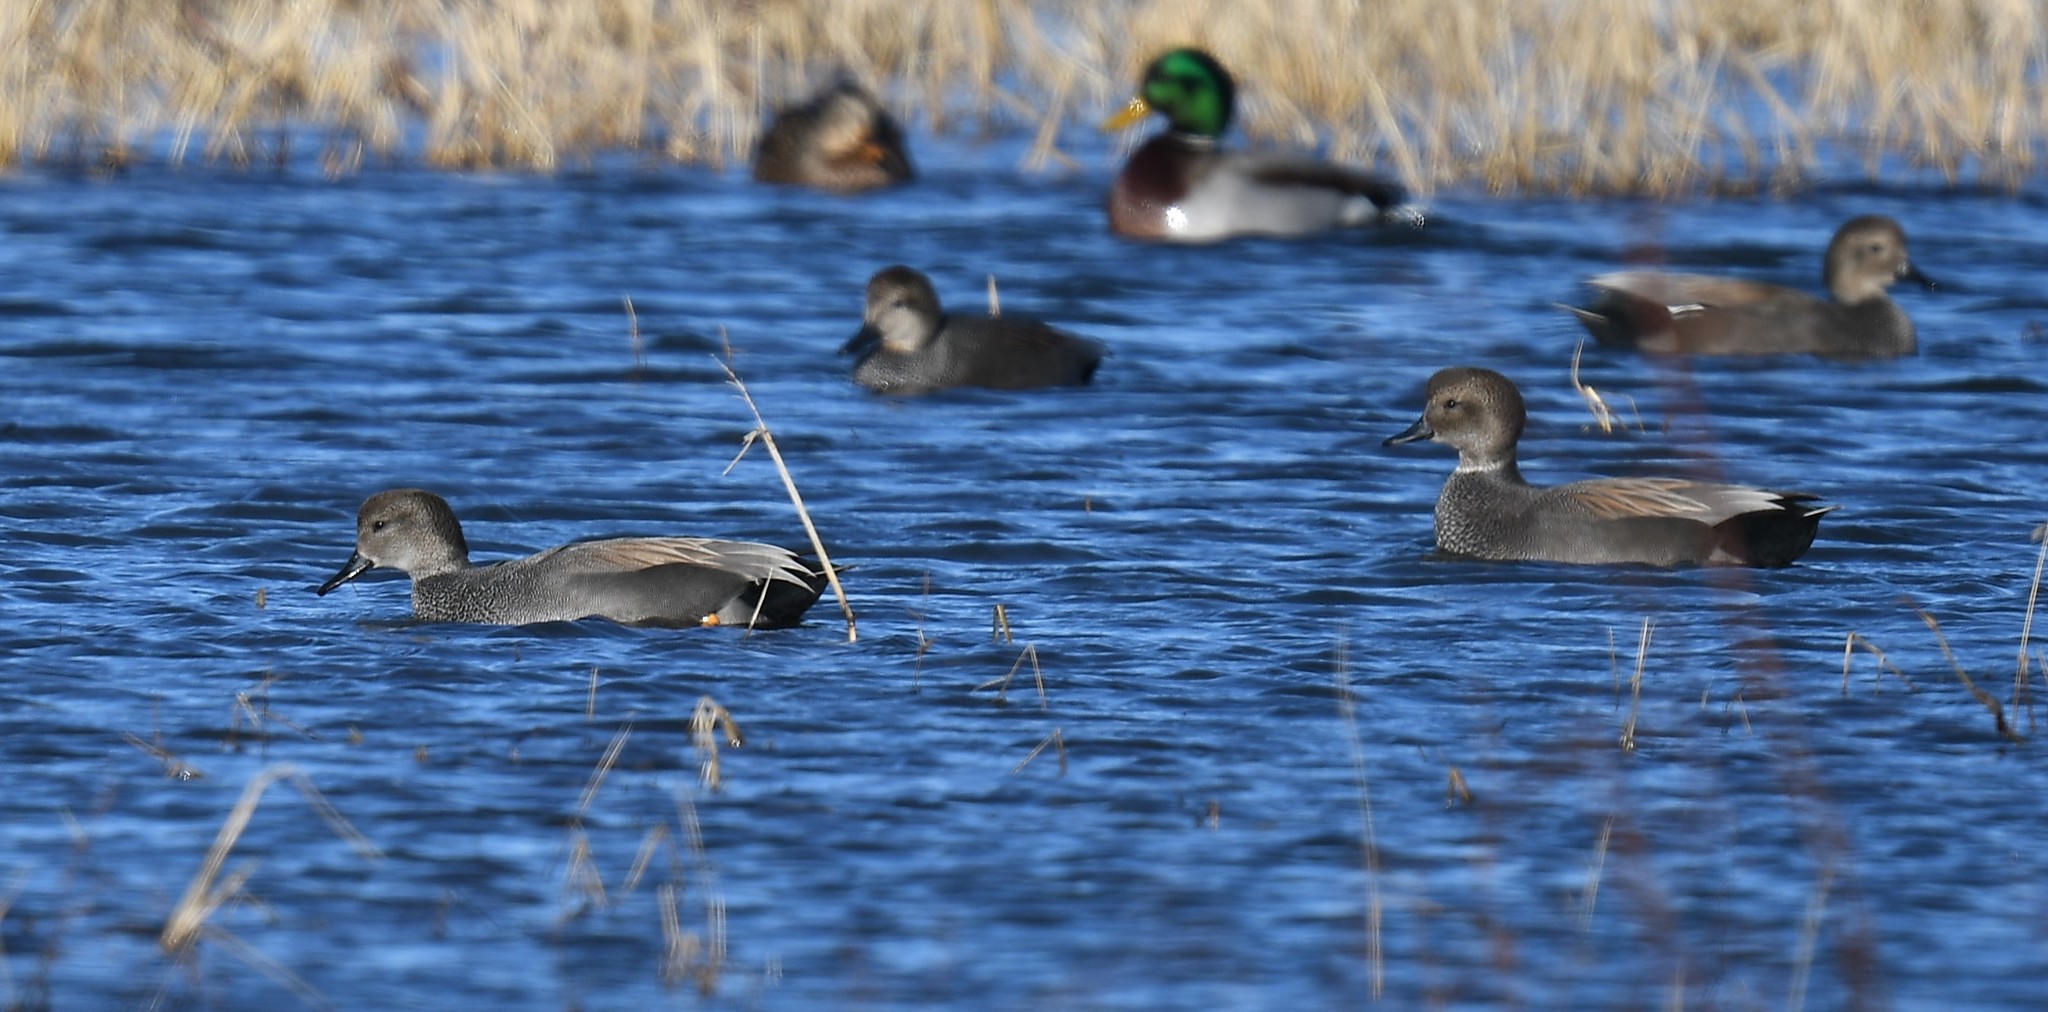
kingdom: Animalia
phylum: Chordata
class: Aves
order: Anseriformes
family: Anatidae
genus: Mareca
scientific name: Mareca strepera
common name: Gadwall
